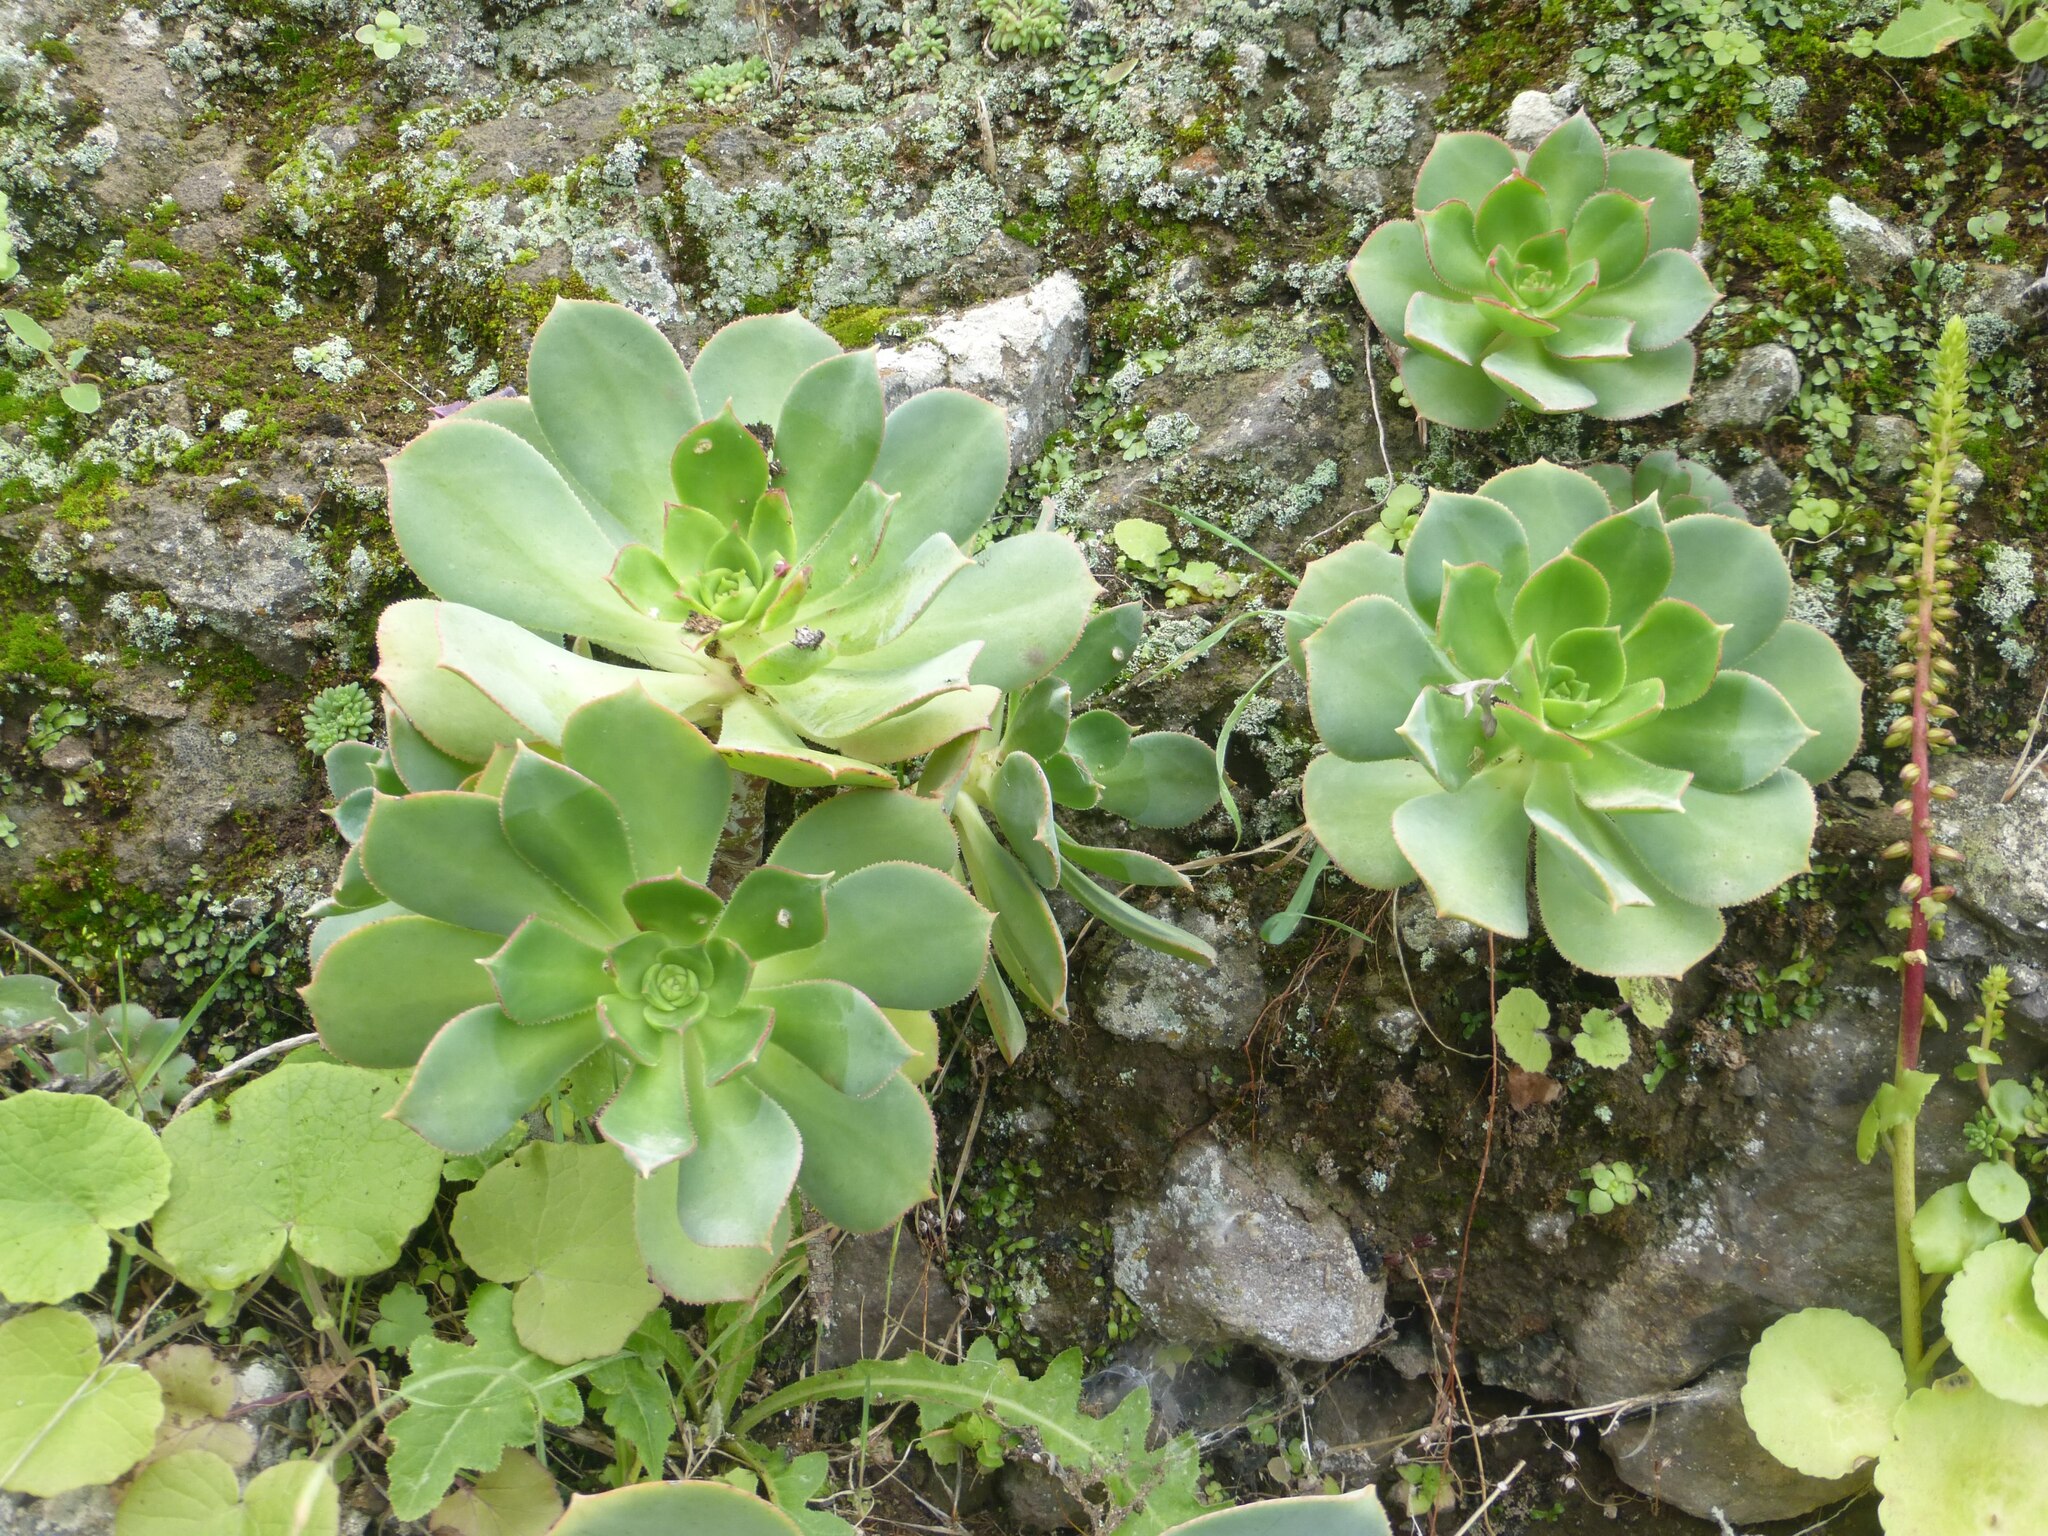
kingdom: Plantae
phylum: Tracheophyta
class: Magnoliopsida
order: Saxifragales
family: Crassulaceae
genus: Aeonium
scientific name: Aeonium percarneum
